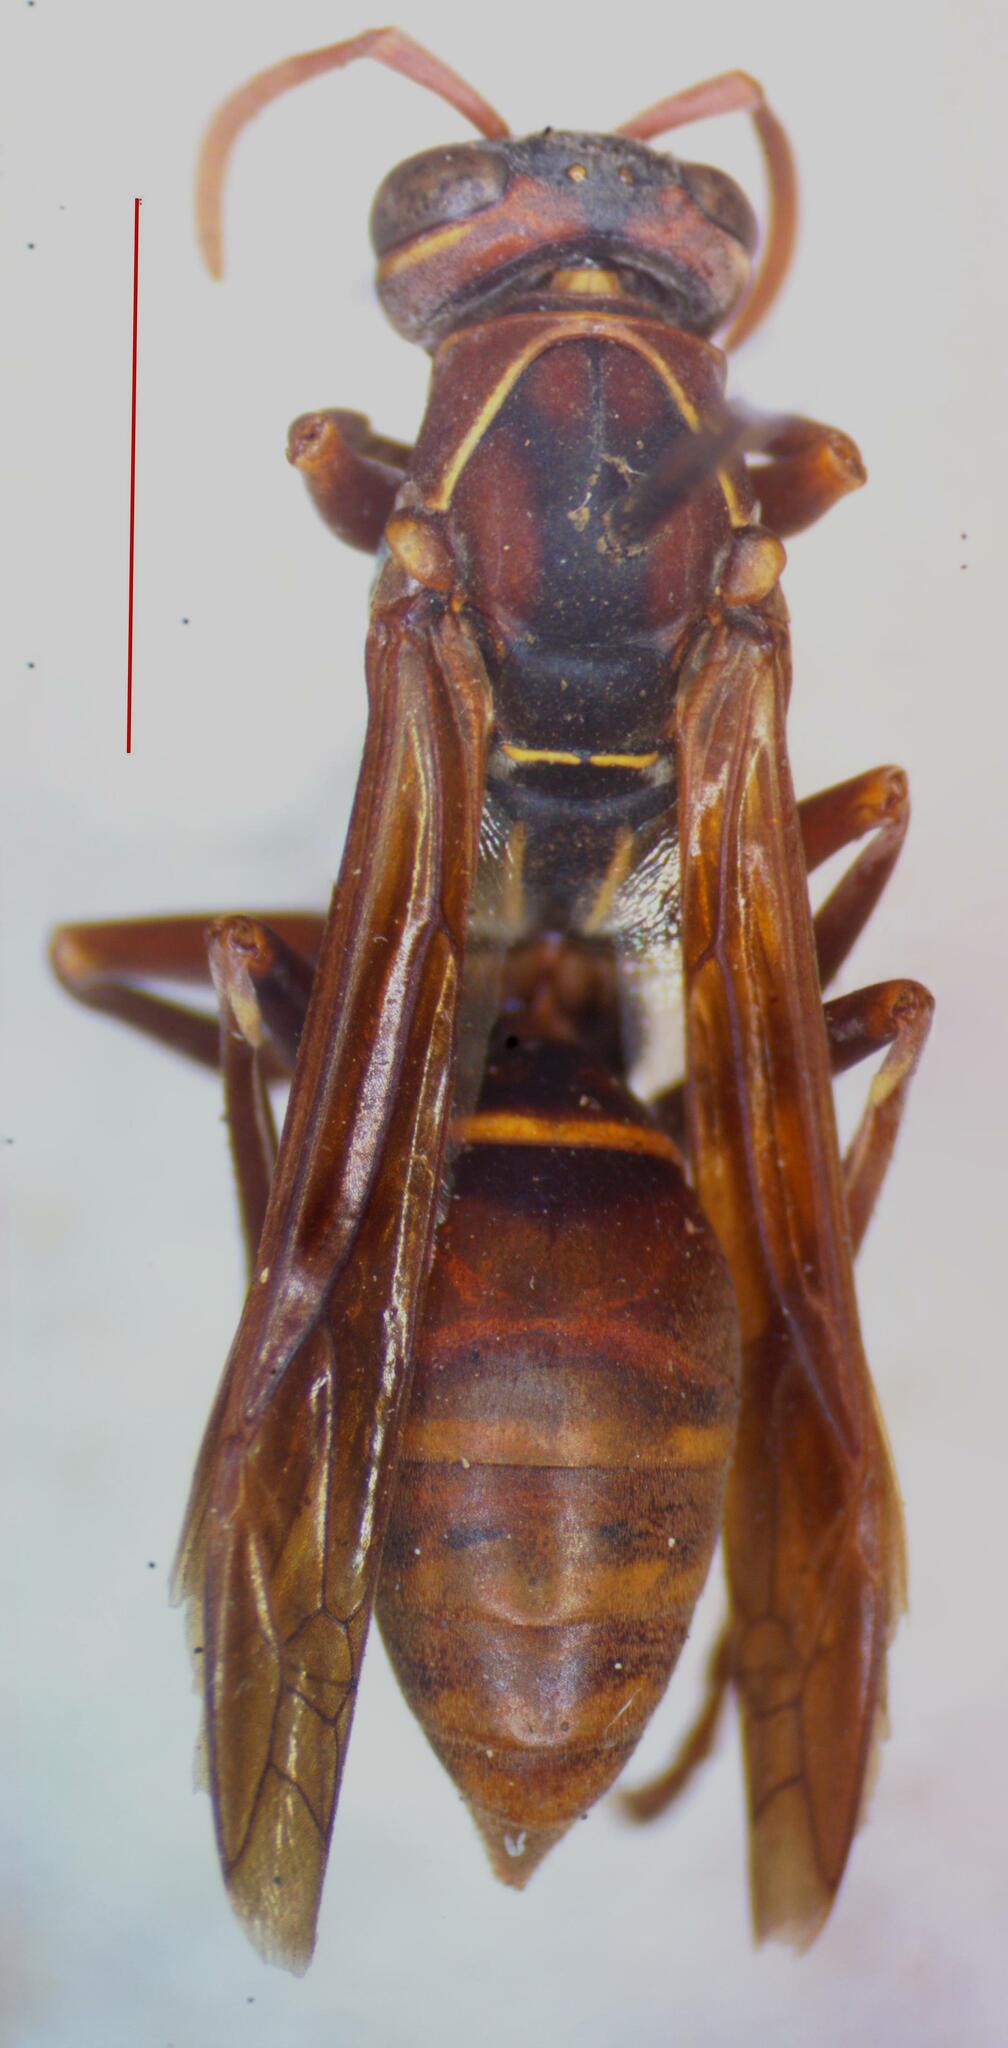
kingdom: Animalia
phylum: Arthropoda
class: Insecta
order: Hymenoptera
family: Eumenidae
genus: Polistes
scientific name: Polistes billardieri
